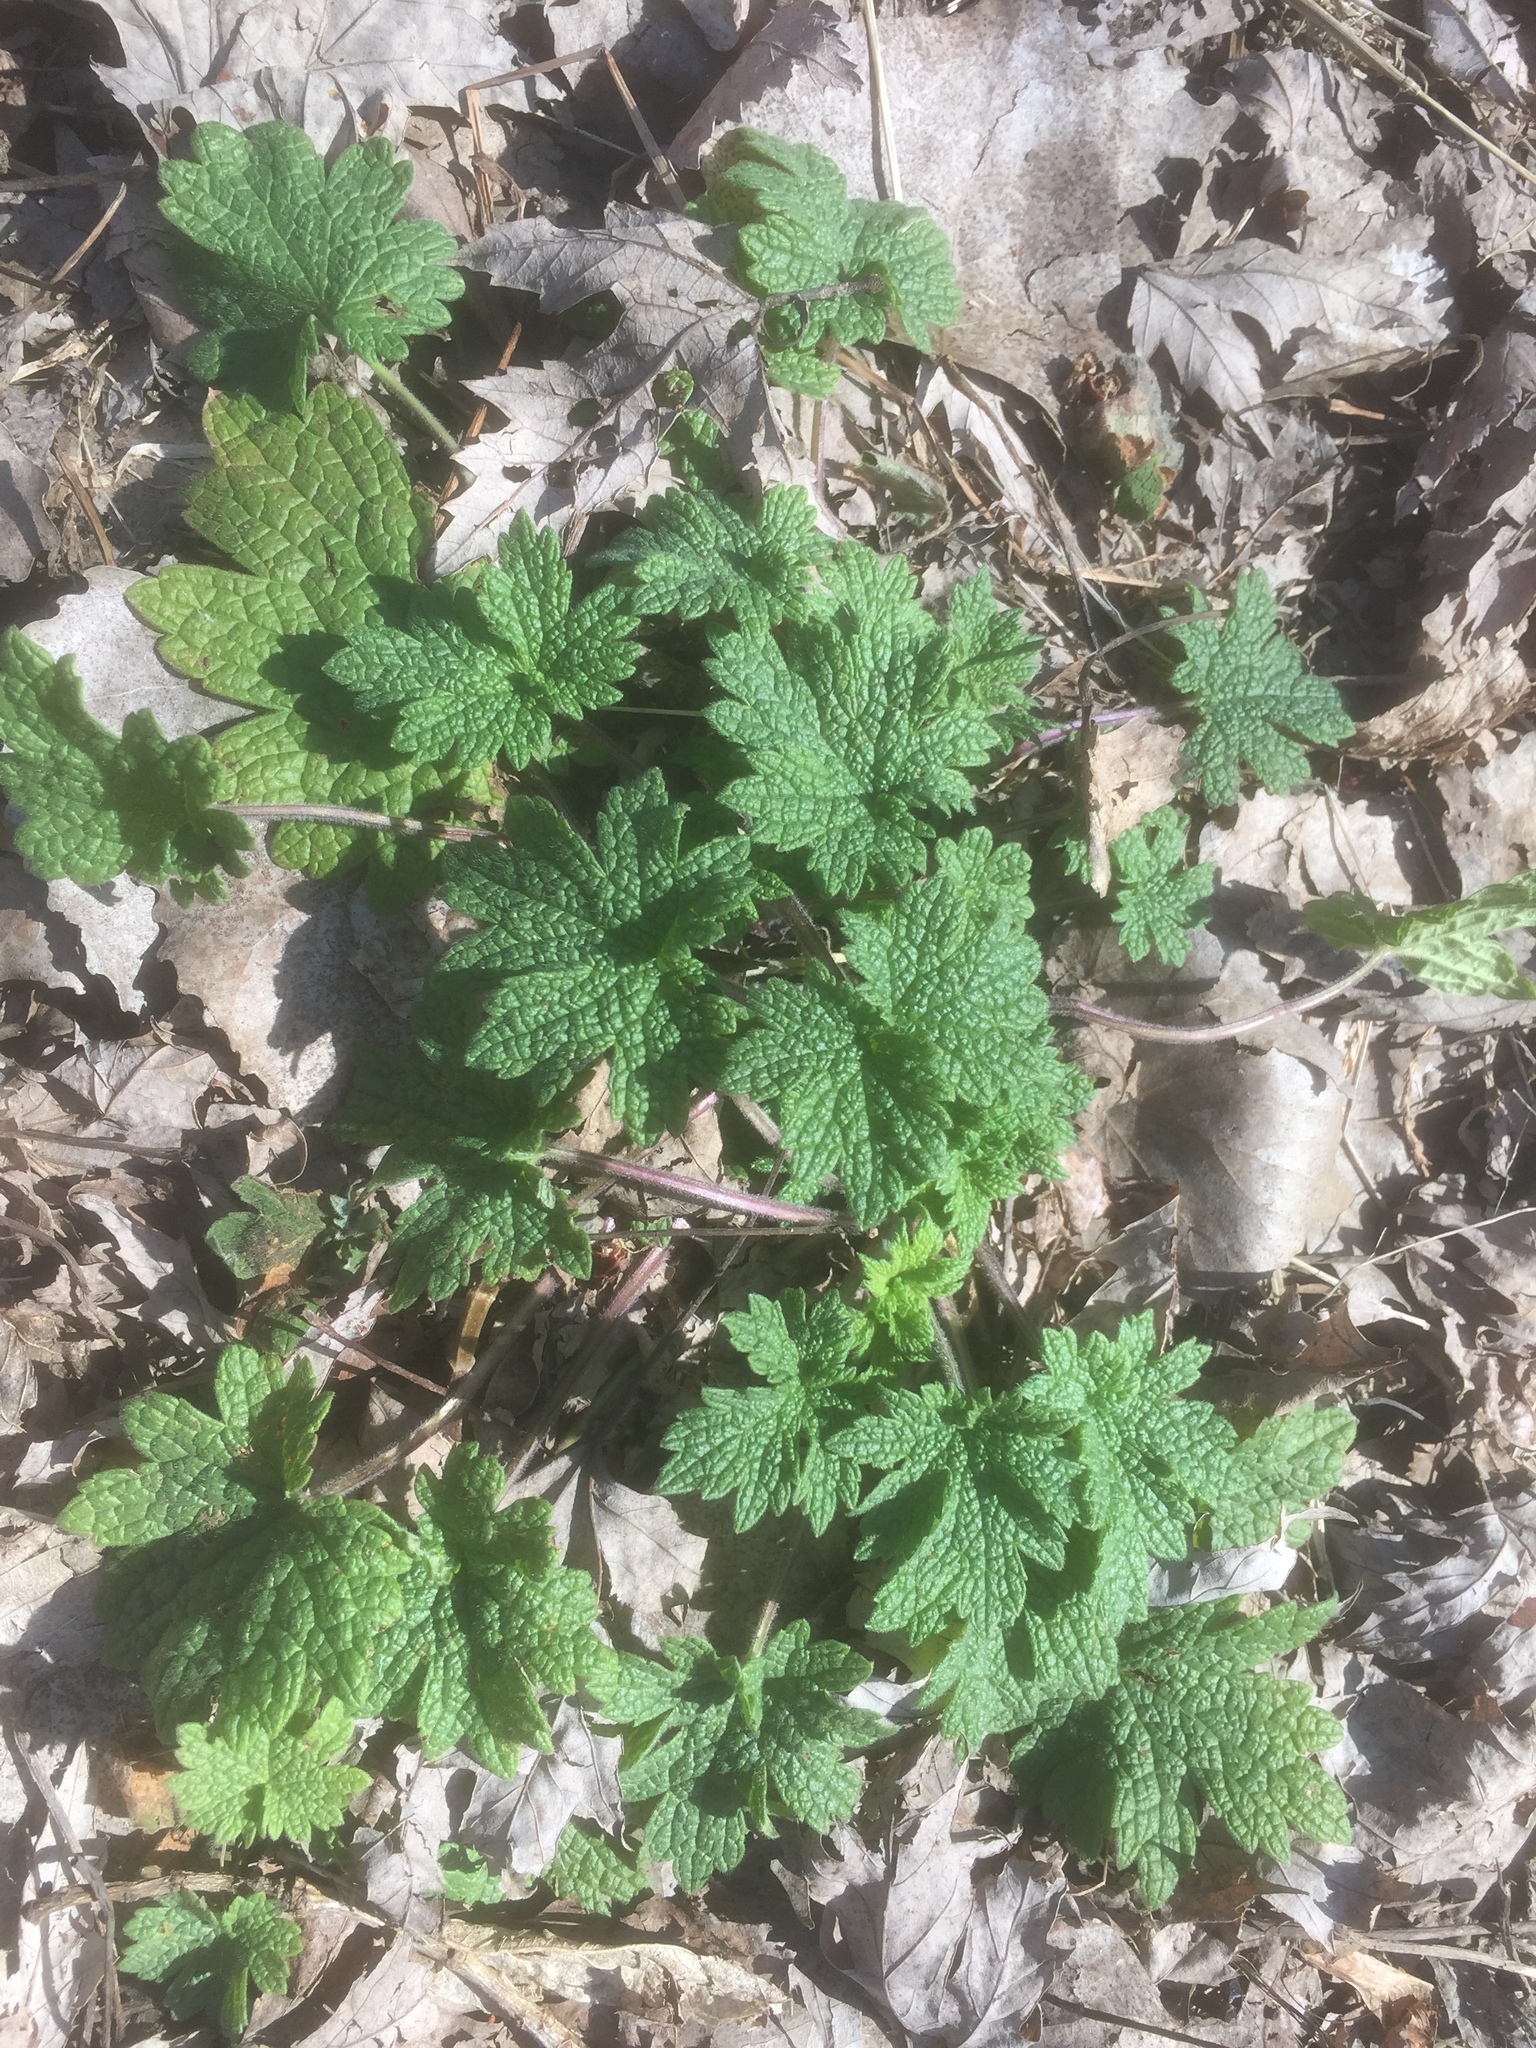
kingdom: Plantae
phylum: Tracheophyta
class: Magnoliopsida
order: Lamiales
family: Lamiaceae
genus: Leonurus
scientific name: Leonurus cardiaca
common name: Motherwort
